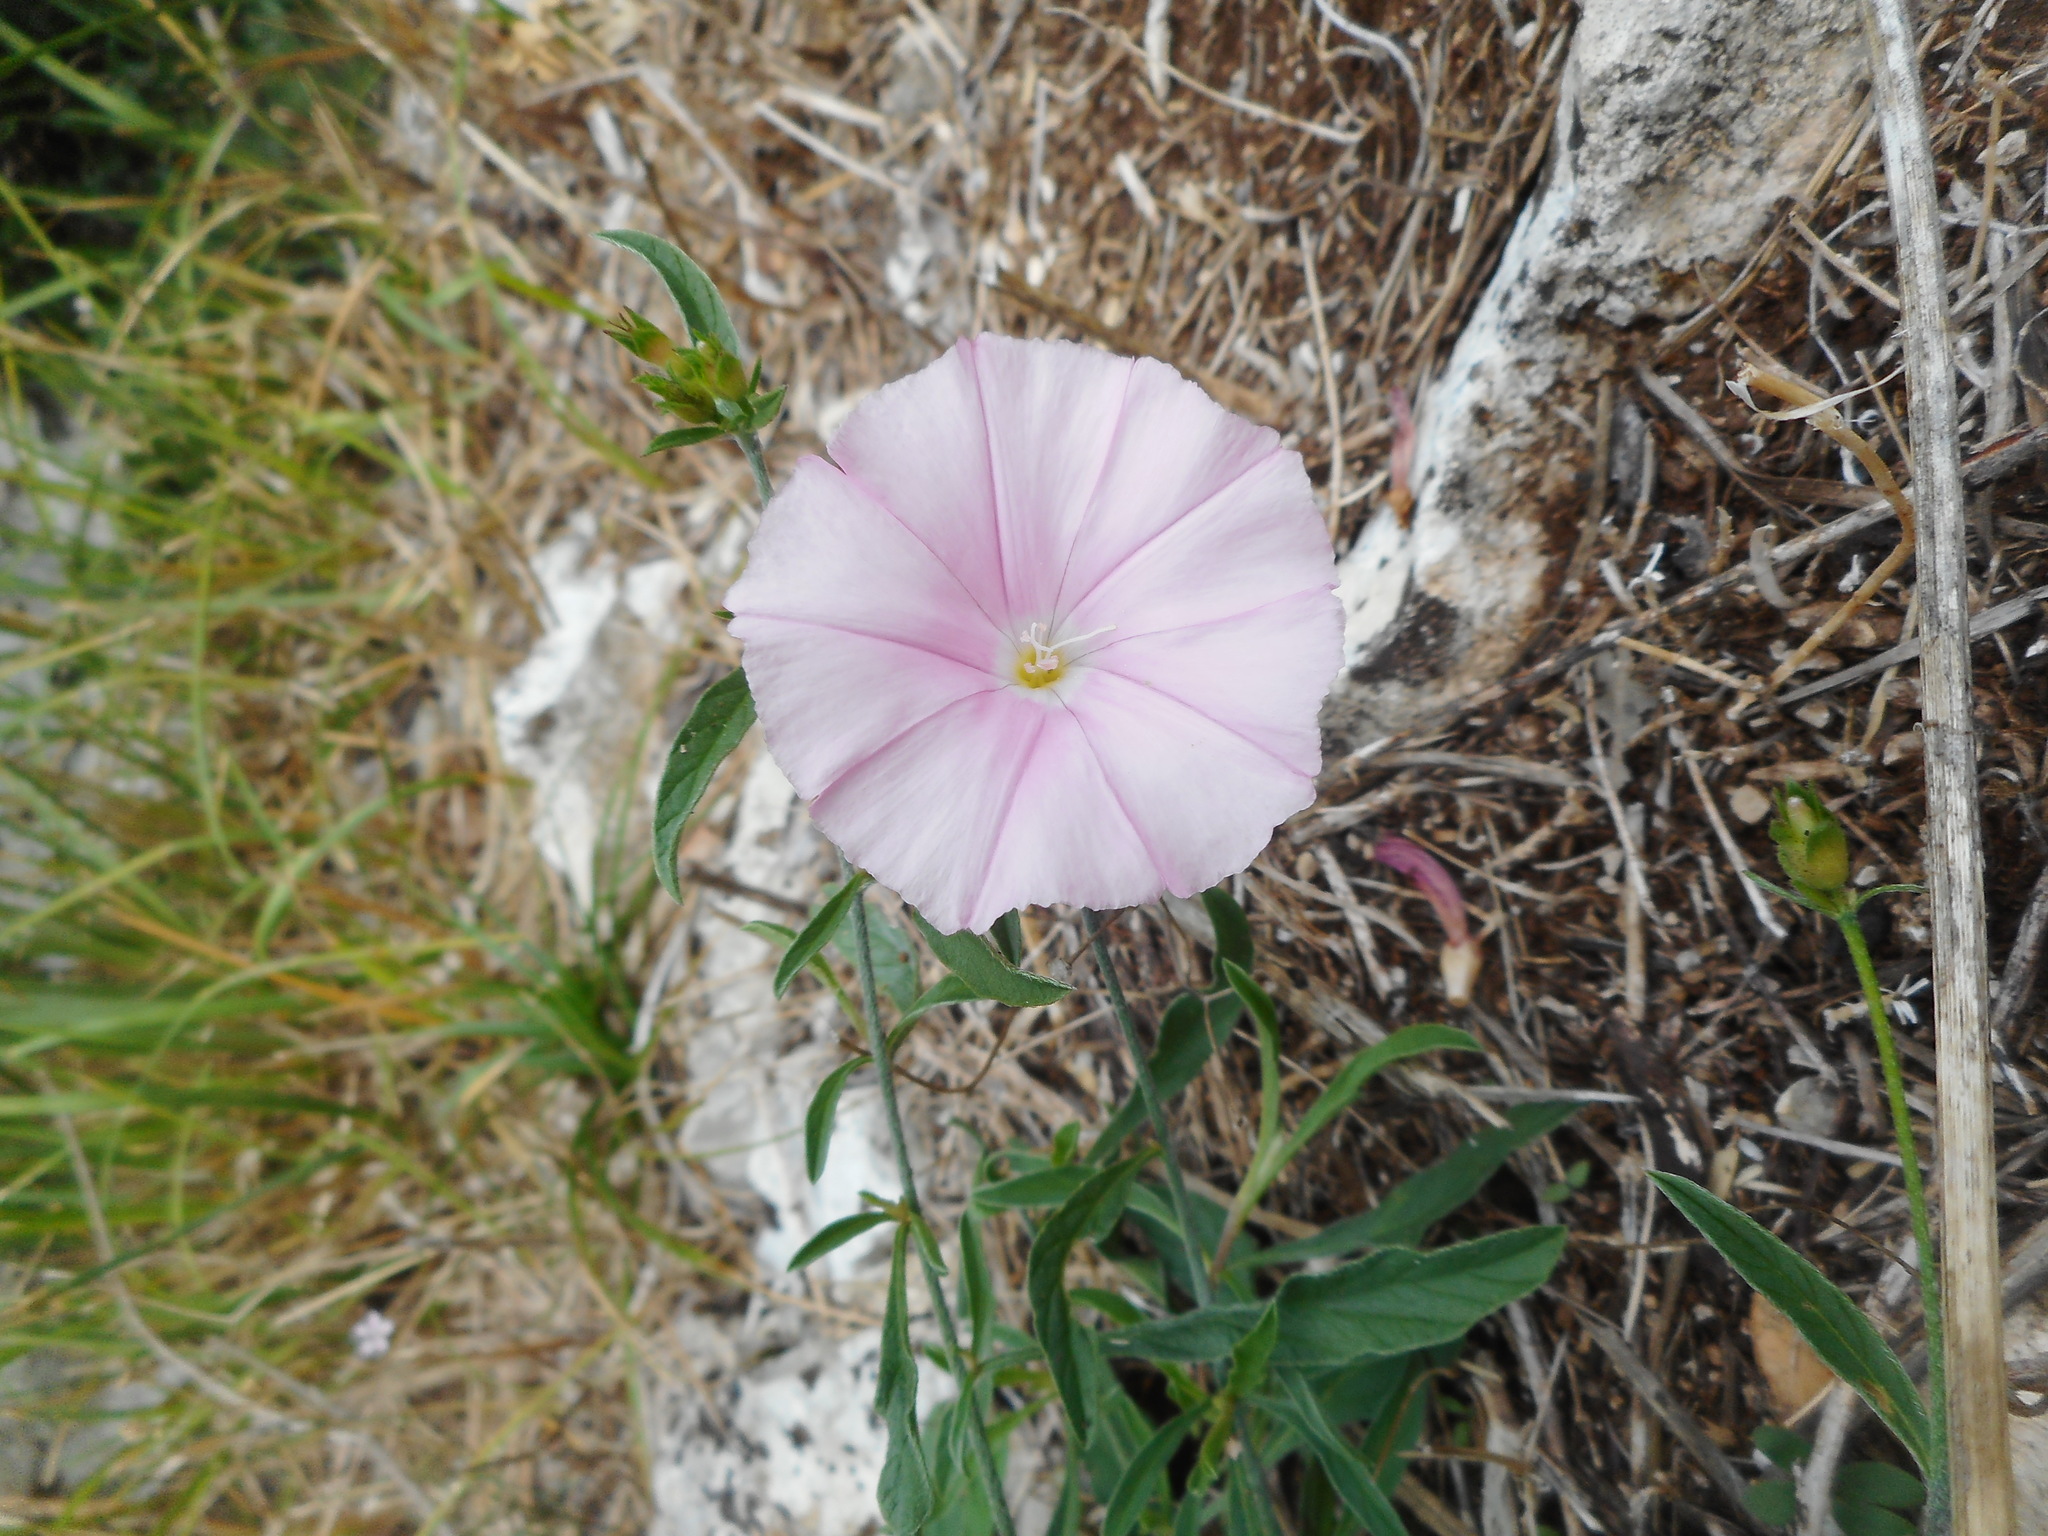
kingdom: Plantae
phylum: Tracheophyta
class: Magnoliopsida
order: Solanales
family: Convolvulaceae
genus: Convolvulus
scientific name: Convolvulus cantabrica
